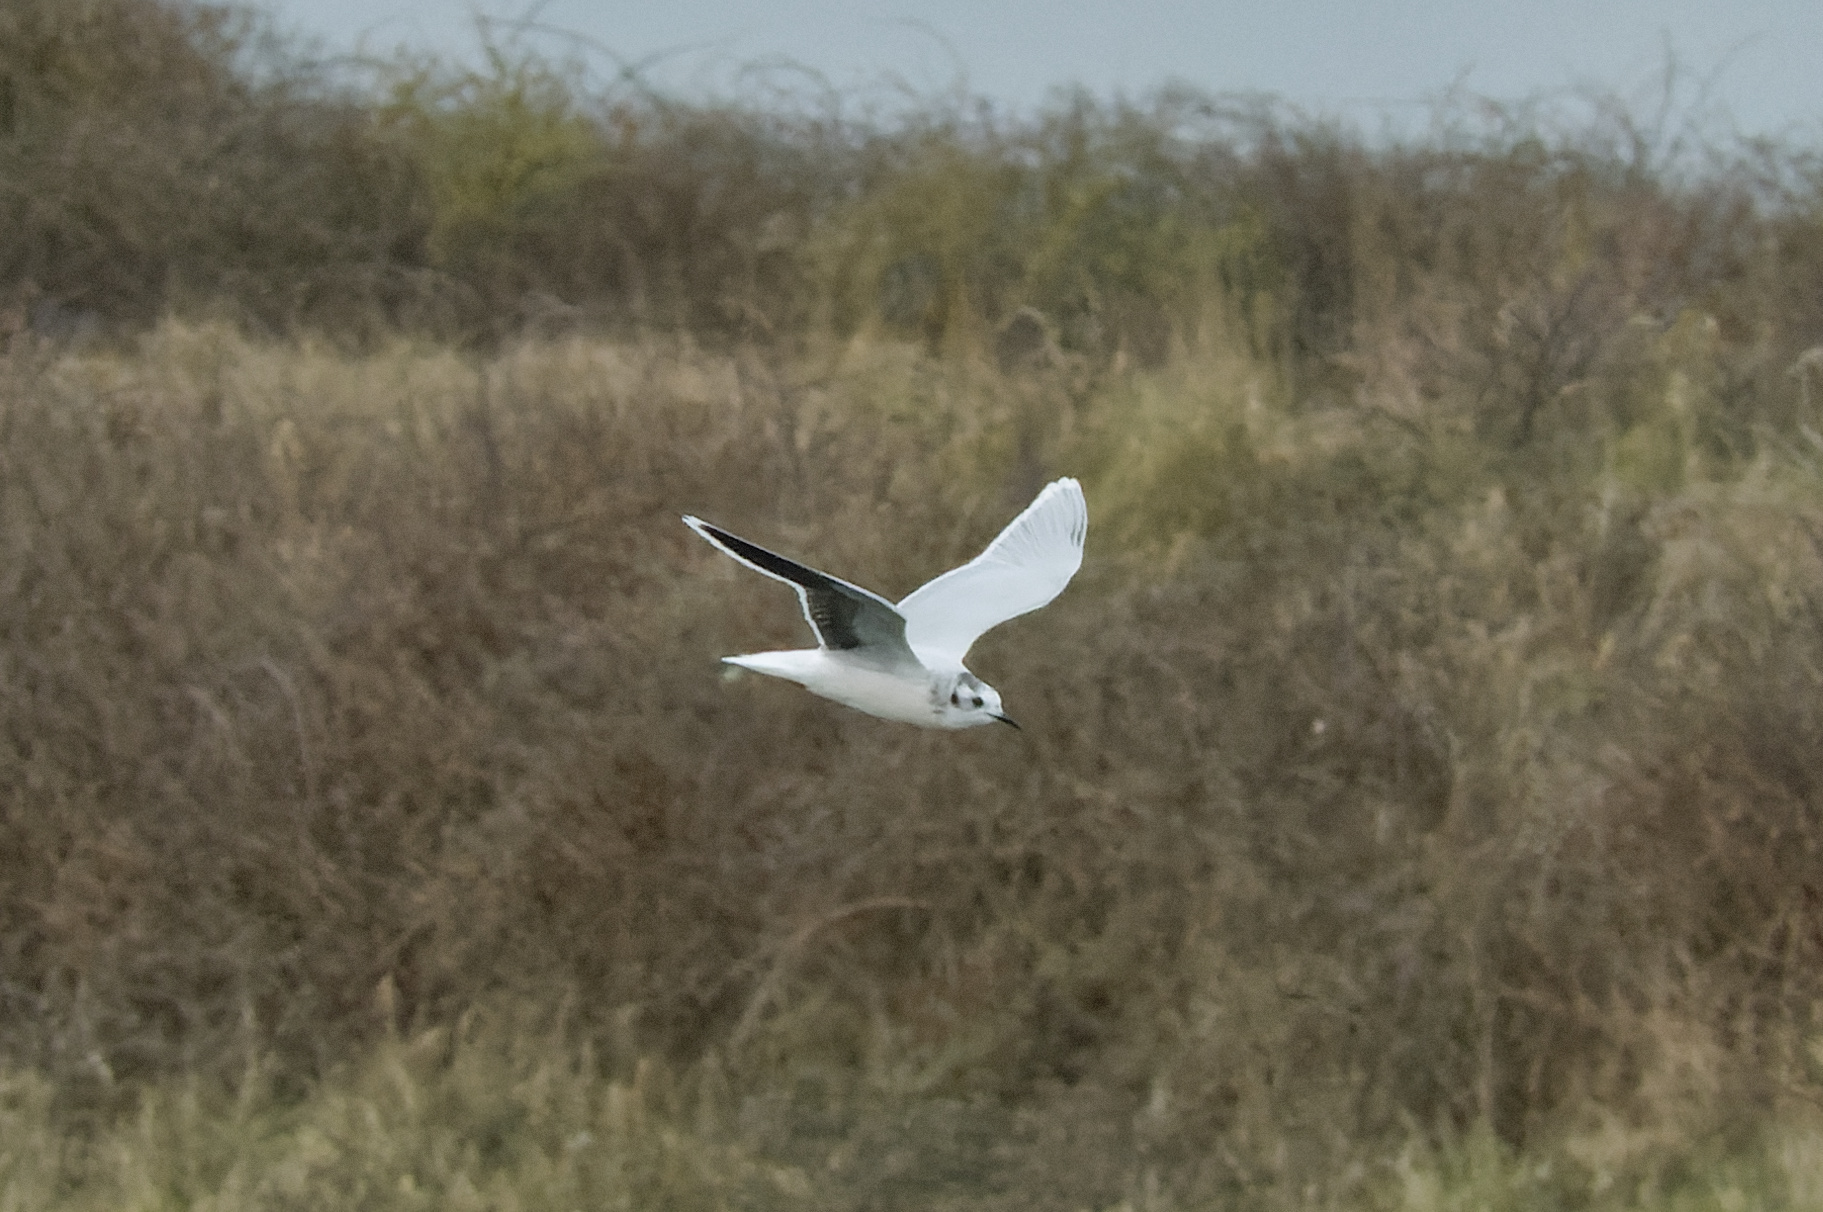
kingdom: Animalia
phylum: Chordata
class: Aves
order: Charadriiformes
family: Laridae
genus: Hydrocoloeus
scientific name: Hydrocoloeus minutus
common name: Little gull
